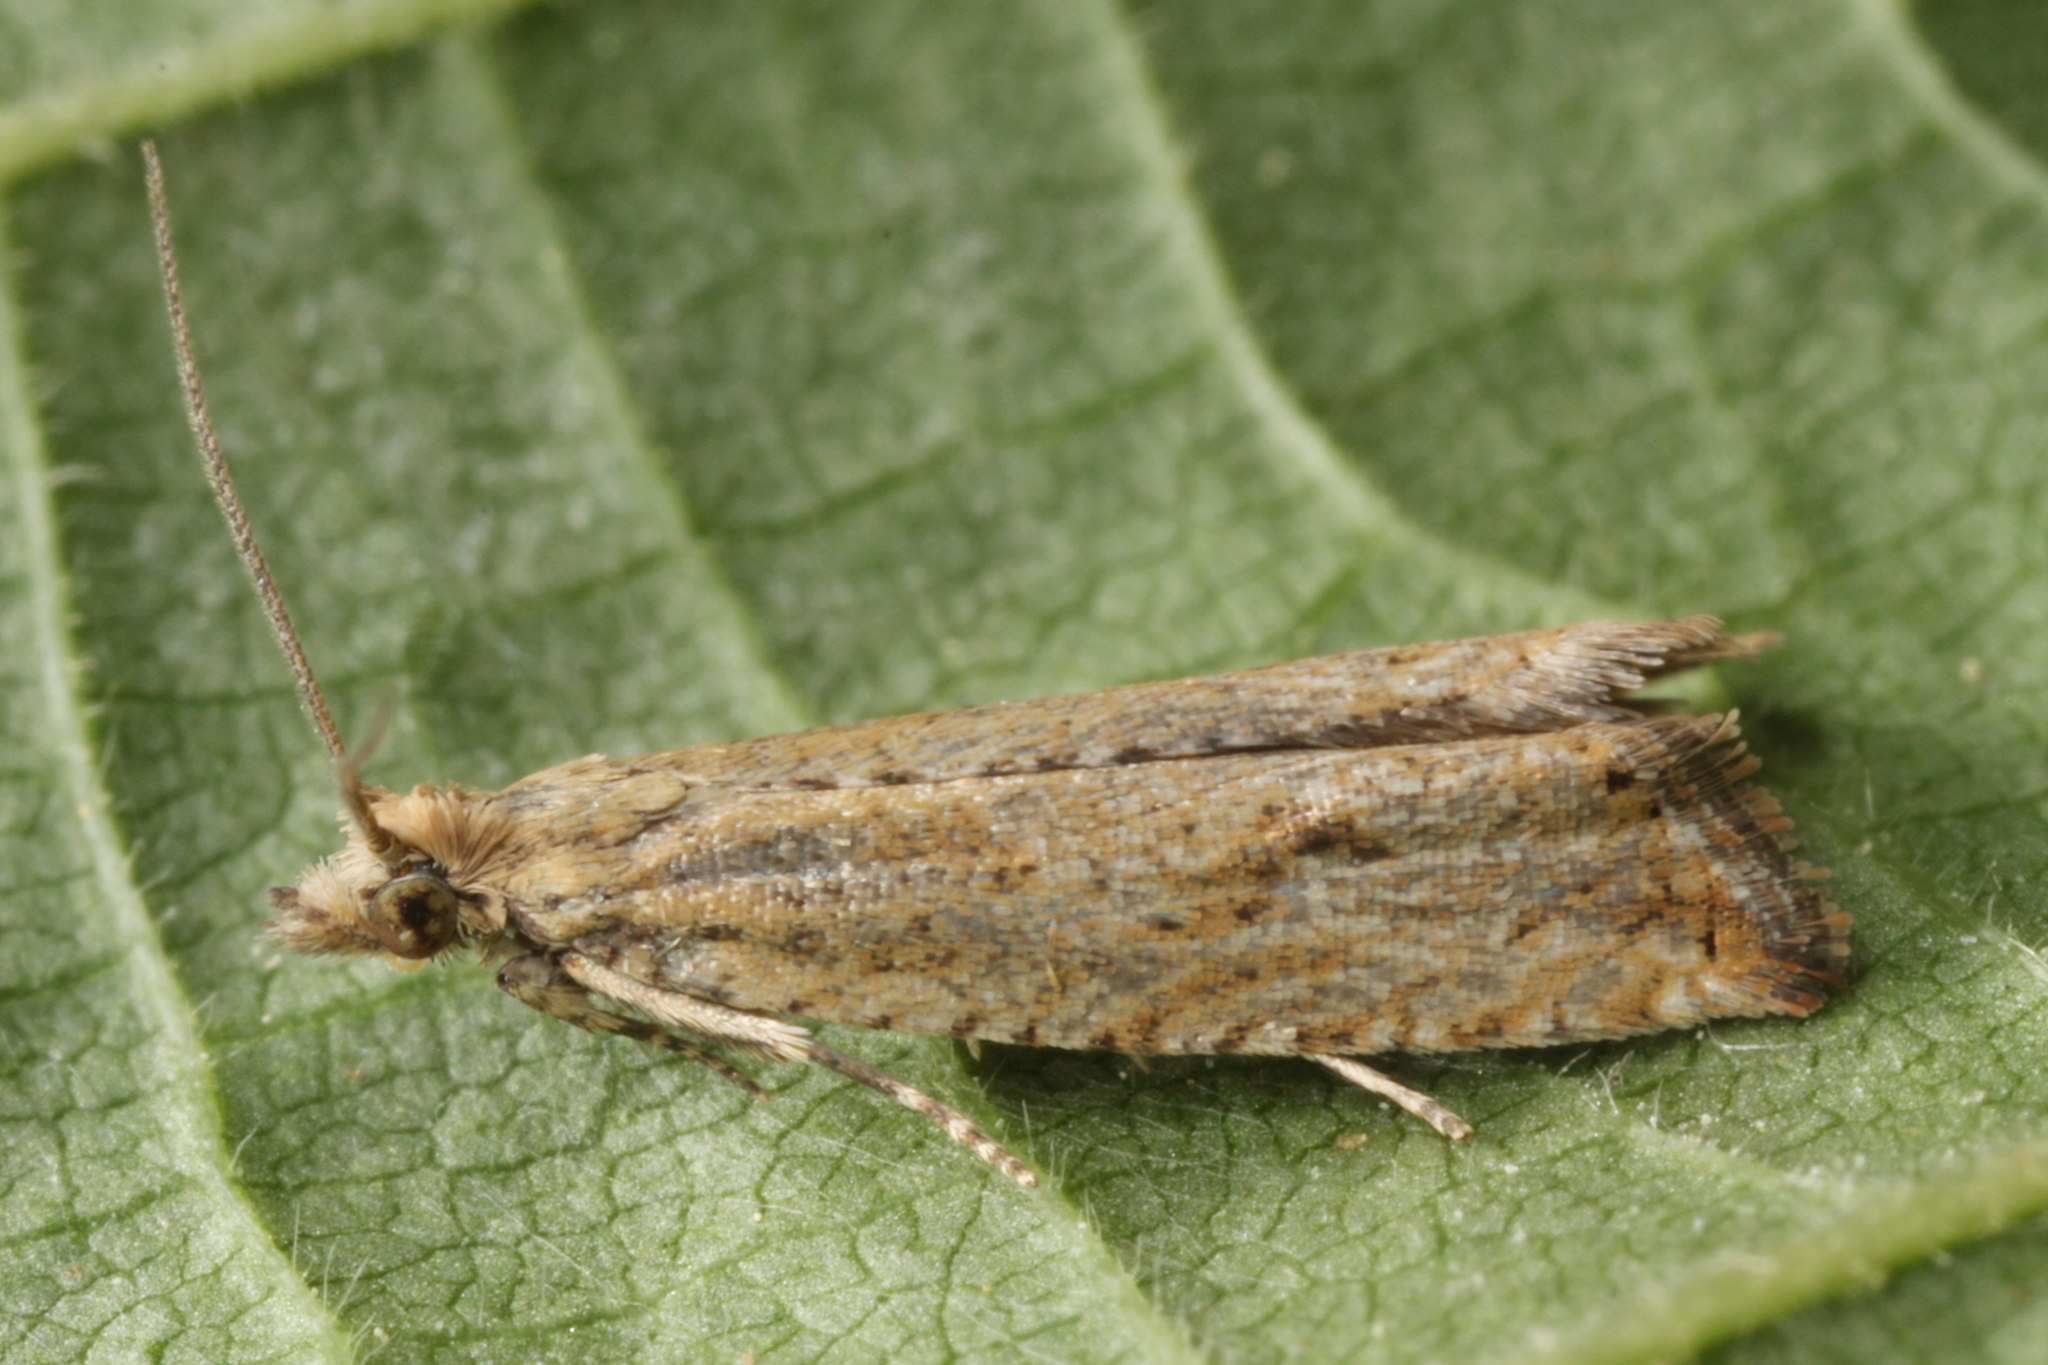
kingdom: Animalia
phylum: Arthropoda
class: Insecta
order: Lepidoptera
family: Tortricidae
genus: Bactra
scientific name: Bactra lancealana
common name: Rush marble
